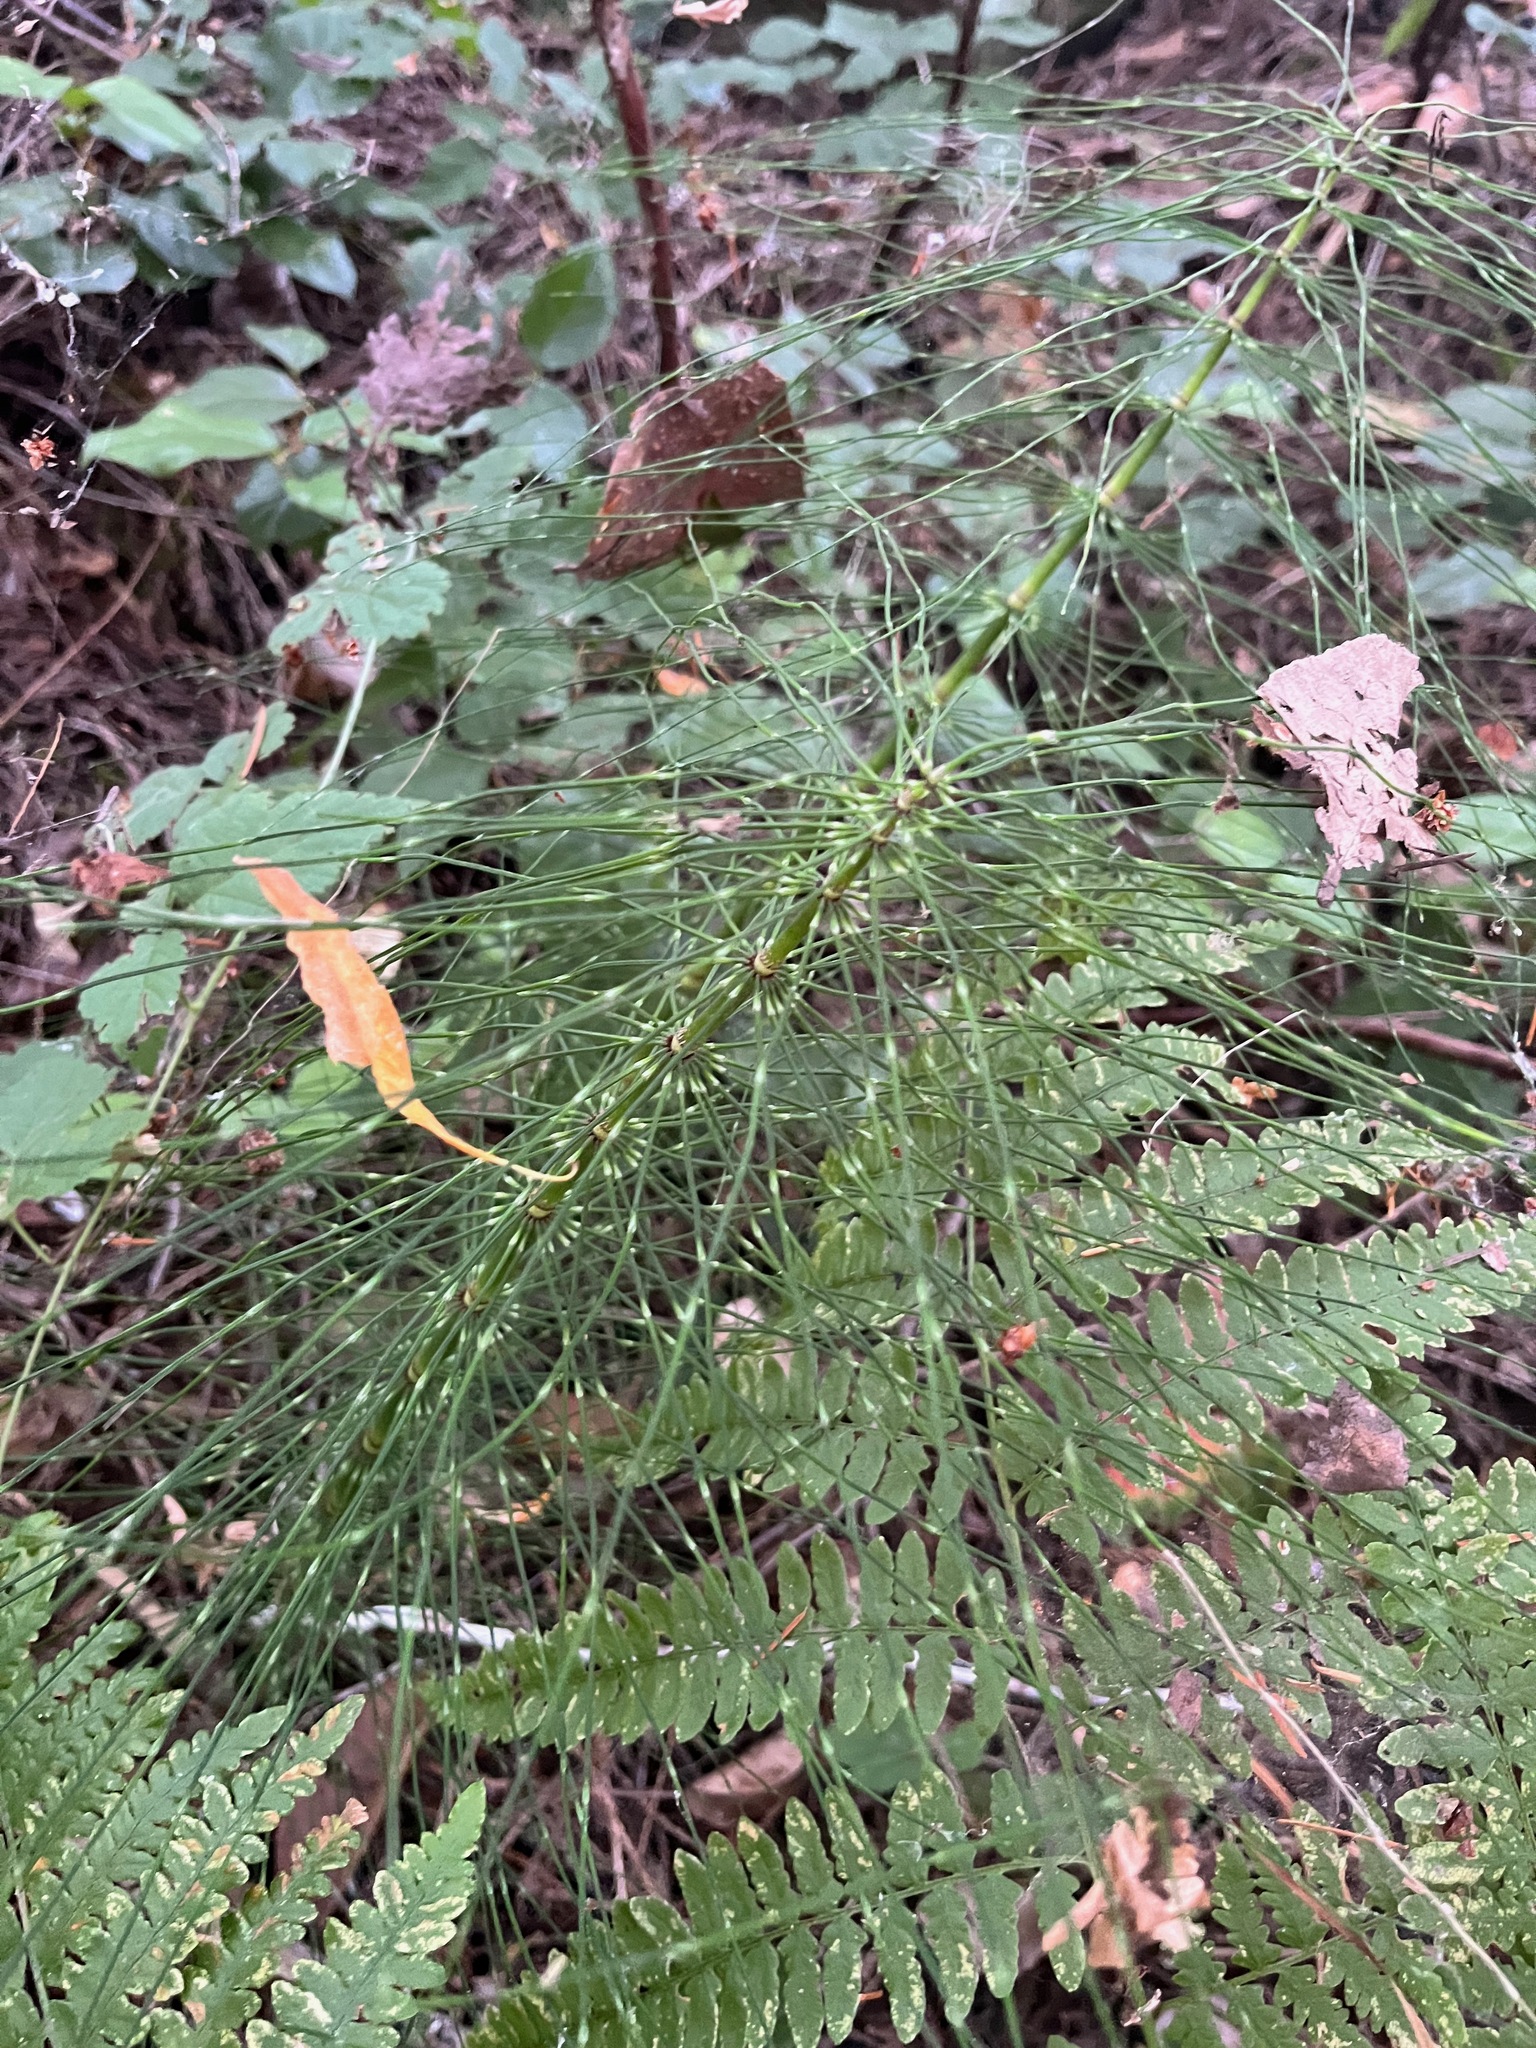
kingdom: Plantae
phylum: Tracheophyta
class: Polypodiopsida
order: Equisetales
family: Equisetaceae
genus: Equisetum
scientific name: Equisetum telmateia
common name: Great horsetail
